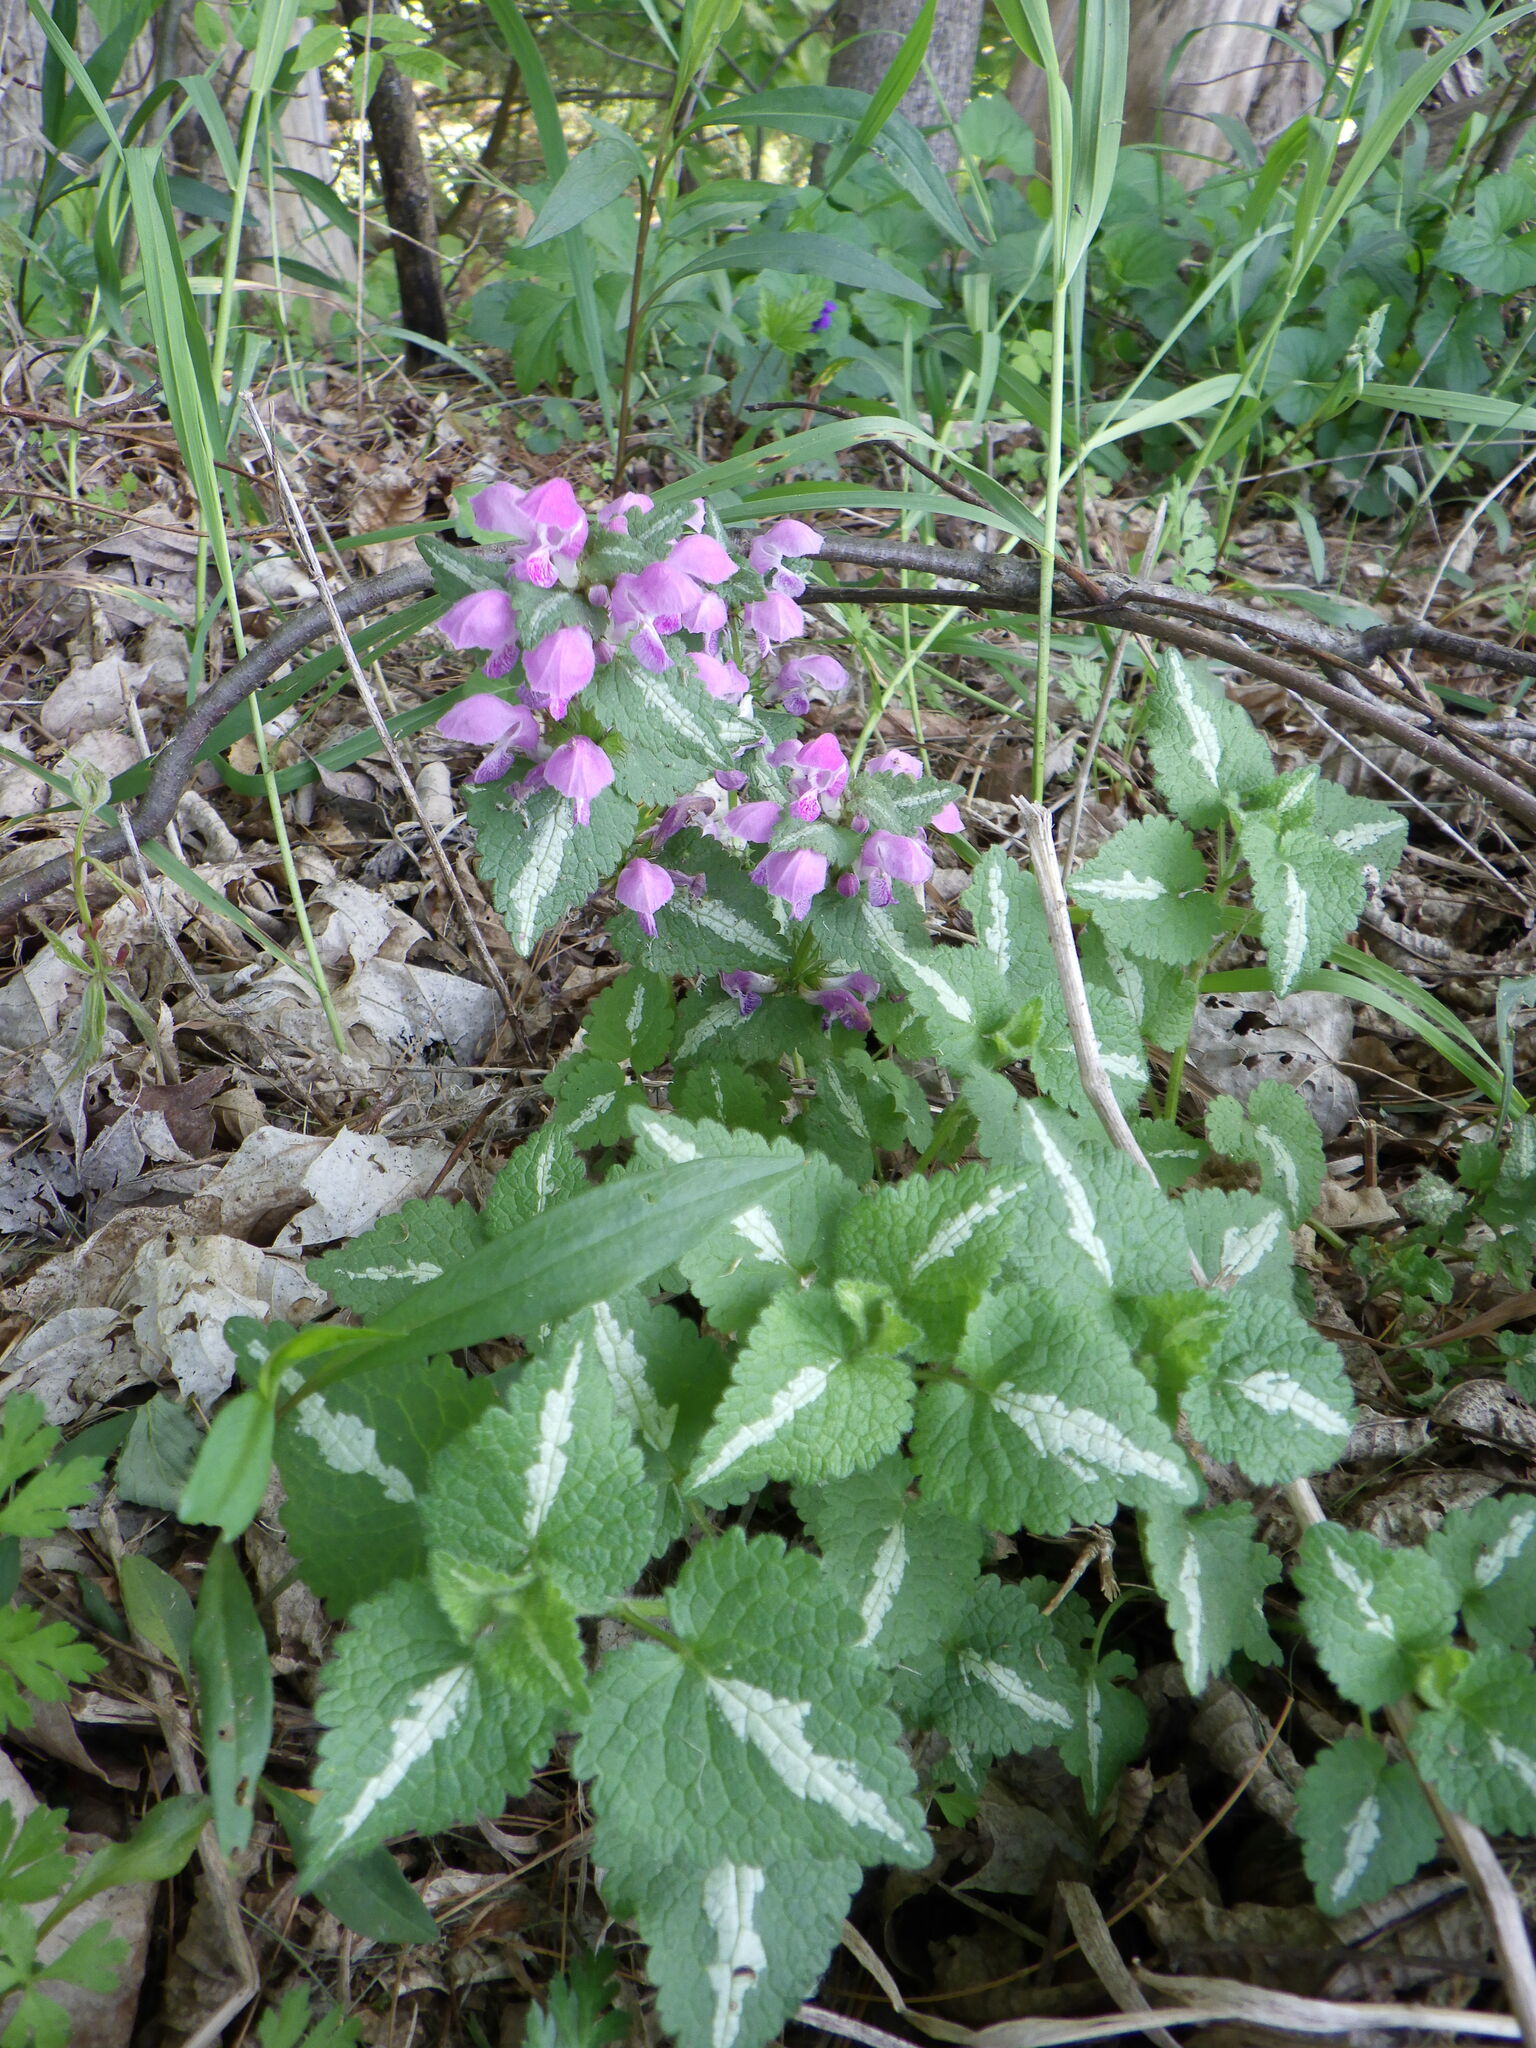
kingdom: Plantae
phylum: Tracheophyta
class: Magnoliopsida
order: Lamiales
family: Lamiaceae
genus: Lamium
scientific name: Lamium maculatum
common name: Spotted dead-nettle
